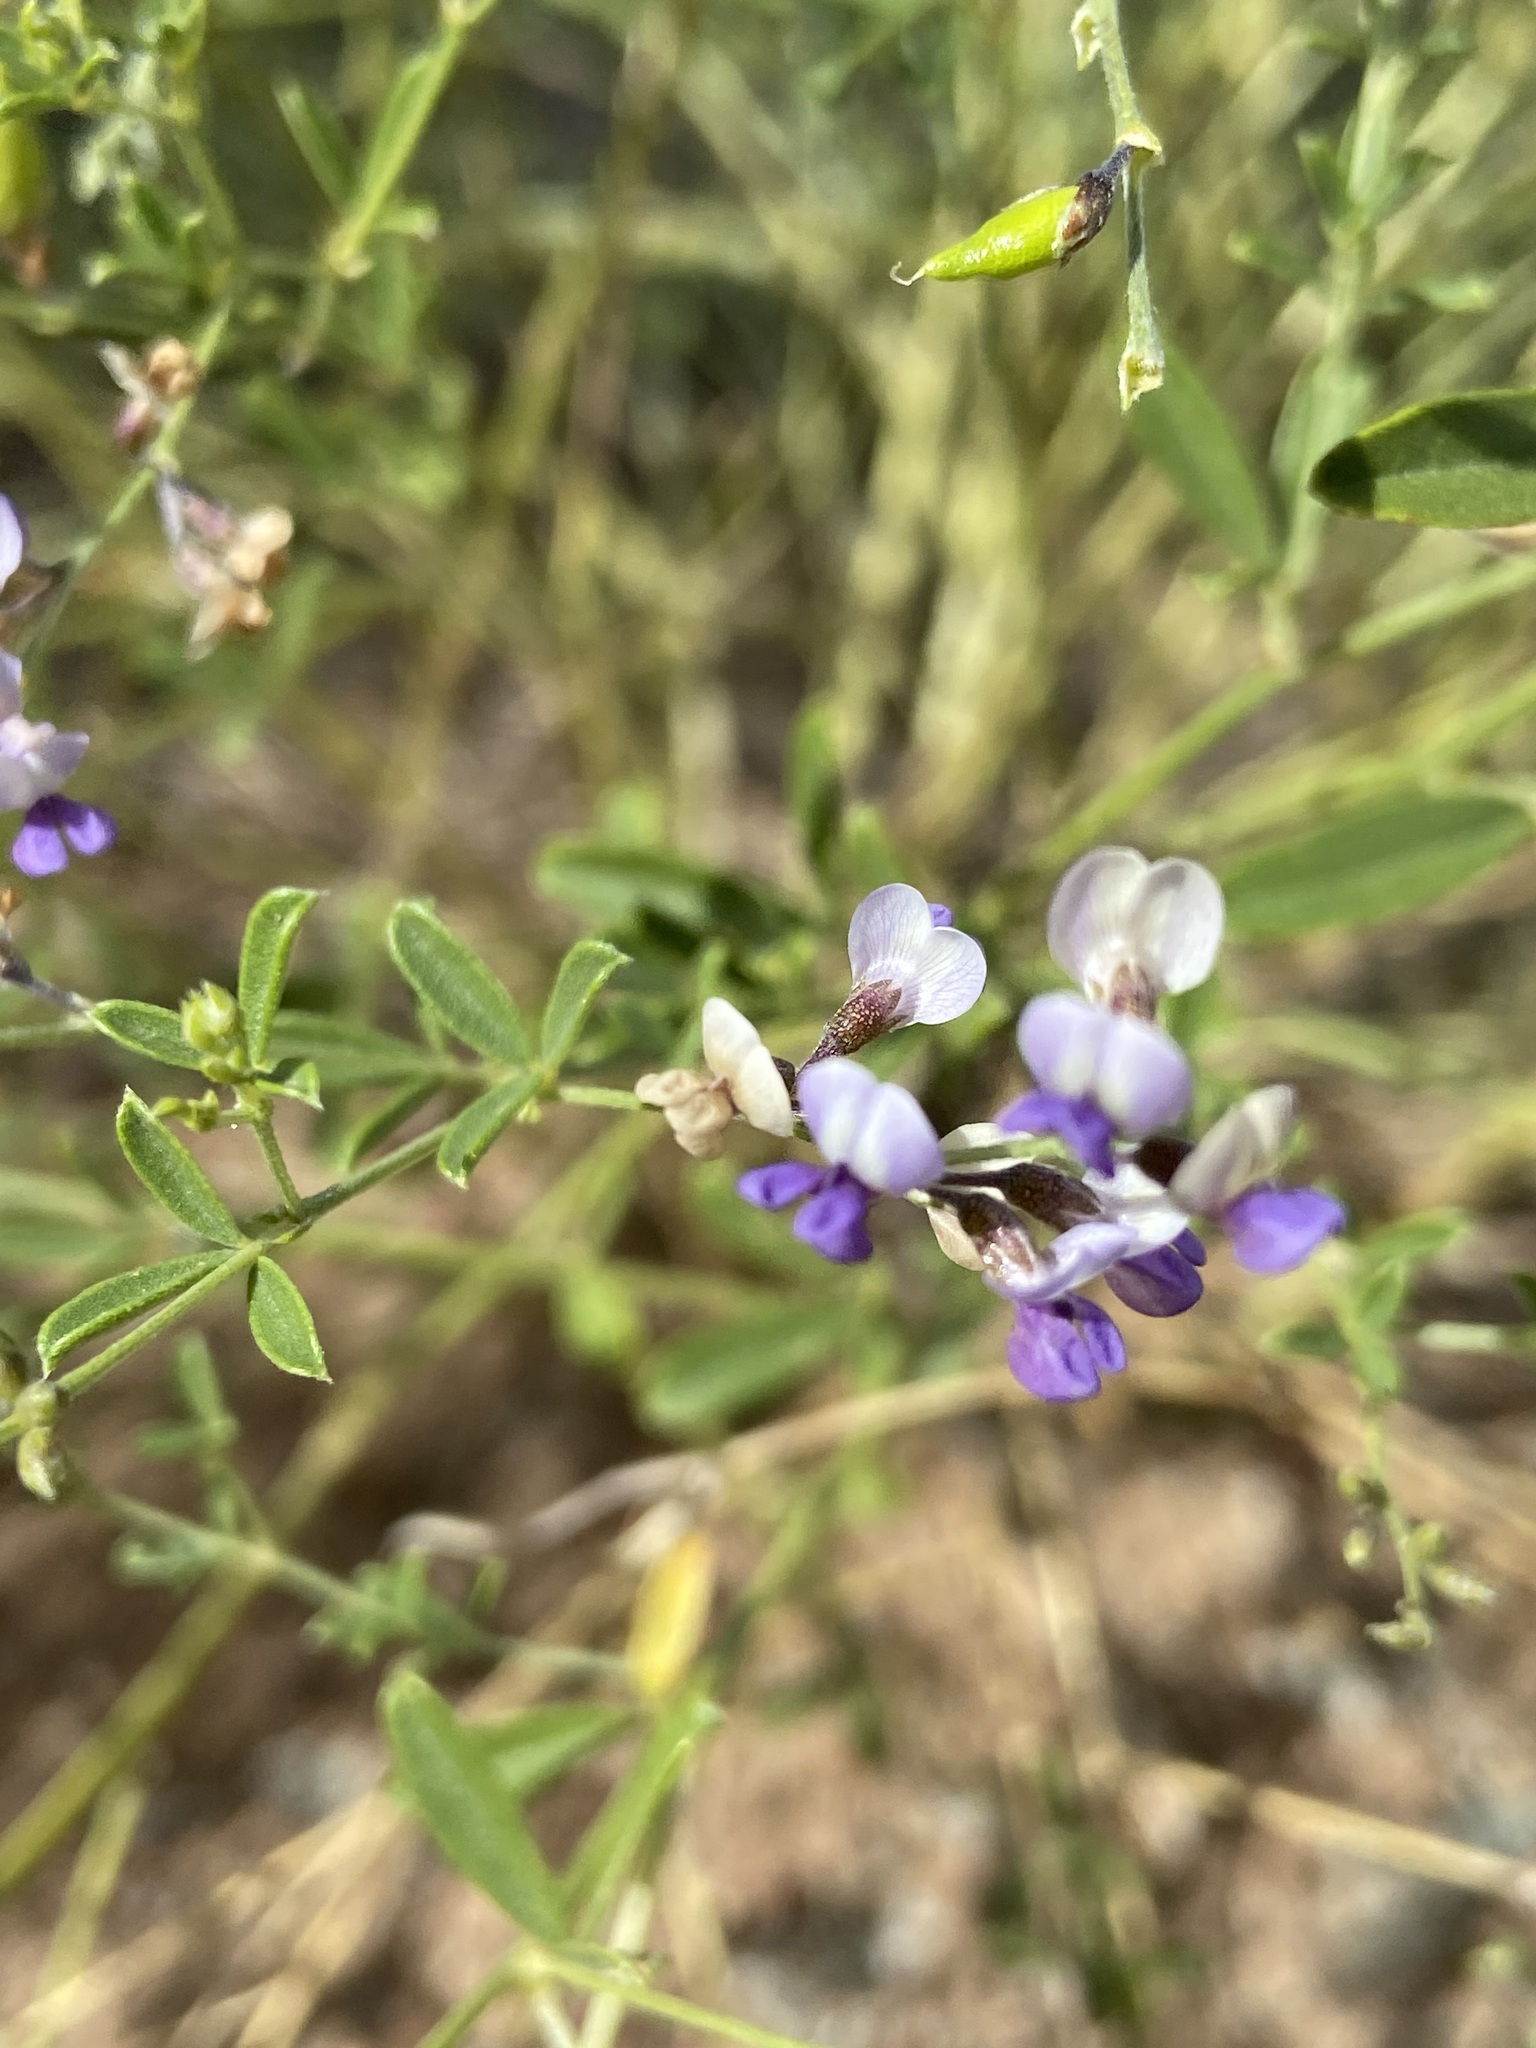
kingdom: Plantae
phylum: Tracheophyta
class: Magnoliopsida
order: Fabales
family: Fabaceae
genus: Pediomelum
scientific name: Pediomelum tenuiflorum
